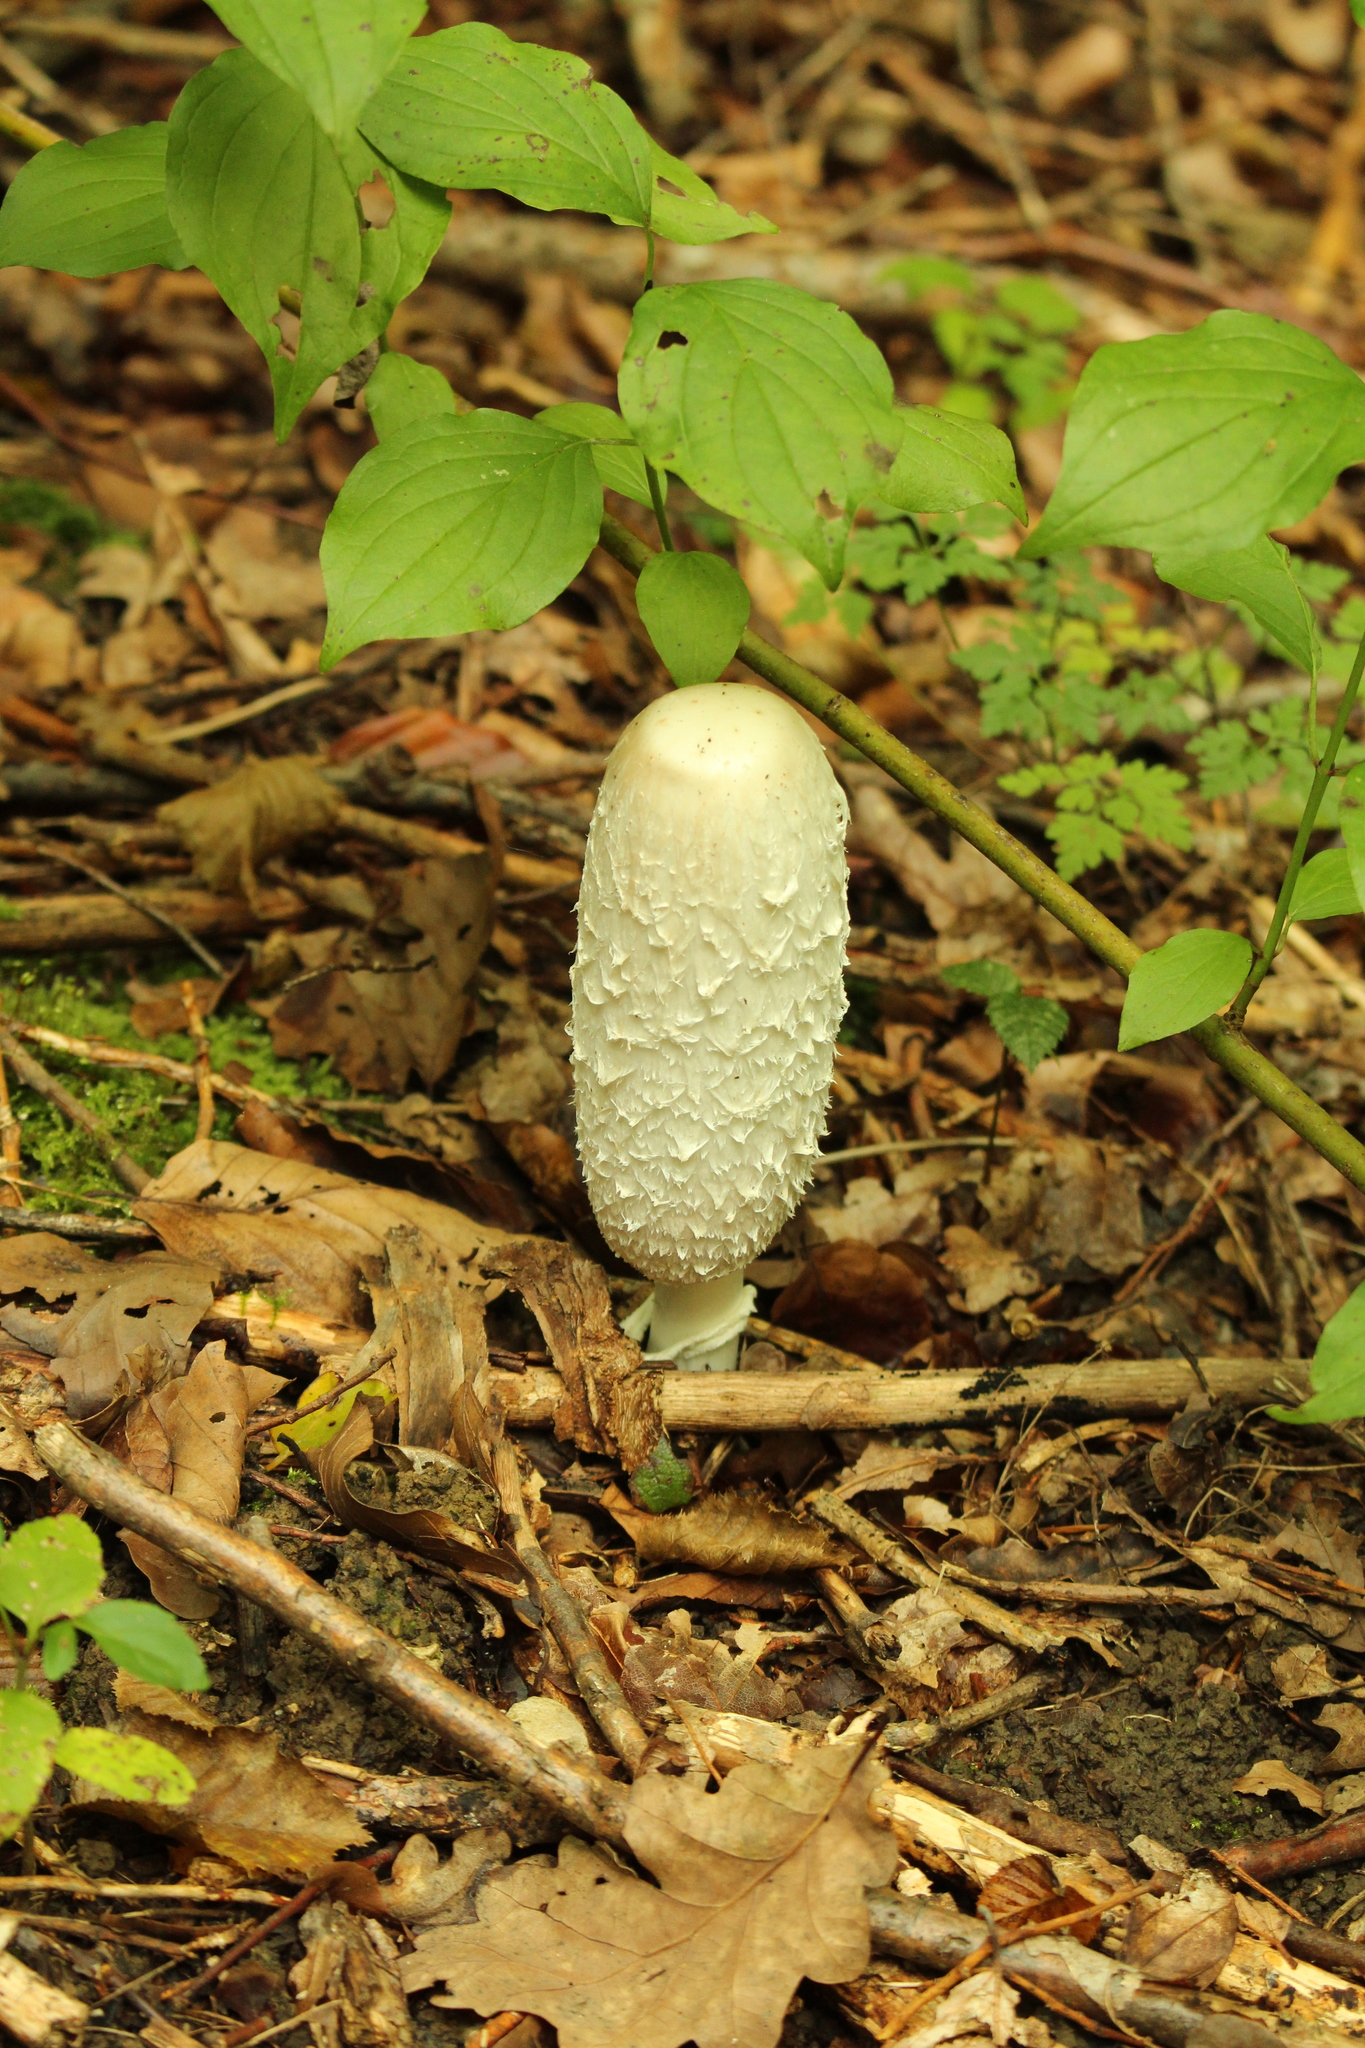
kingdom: Fungi
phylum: Basidiomycota
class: Agaricomycetes
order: Agaricales
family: Agaricaceae
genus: Coprinus
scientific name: Coprinus comatus
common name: Lawyer's wig
